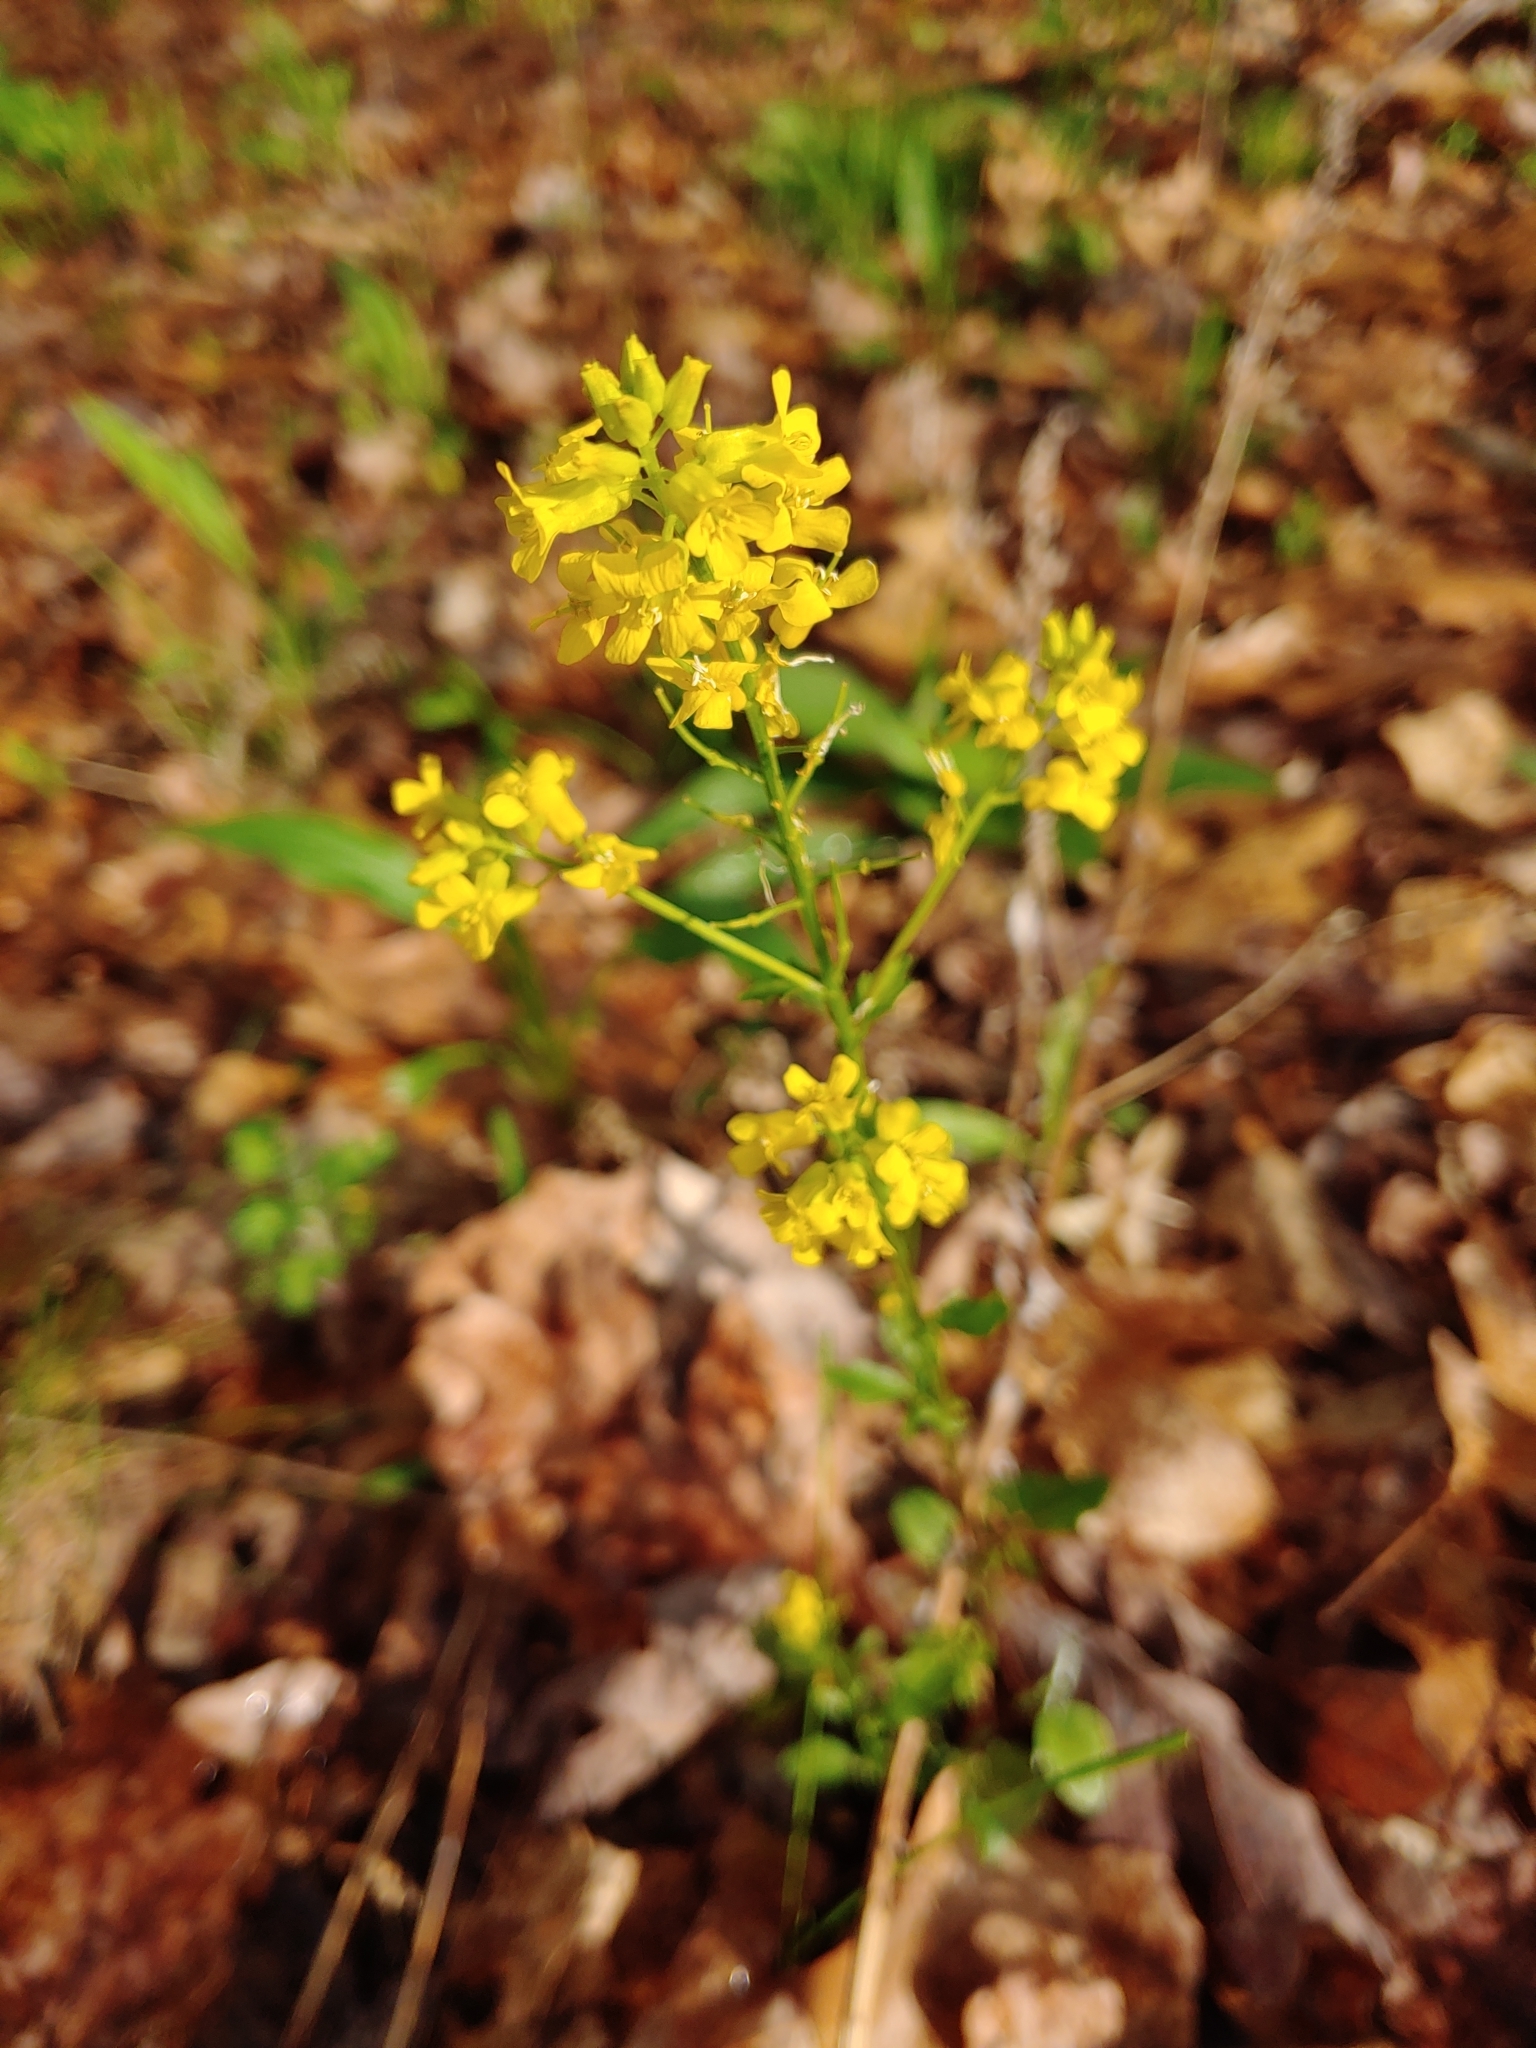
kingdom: Plantae
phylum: Tracheophyta
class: Magnoliopsida
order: Brassicales
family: Brassicaceae
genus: Barbarea
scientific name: Barbarea vulgaris
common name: Cressy-greens
